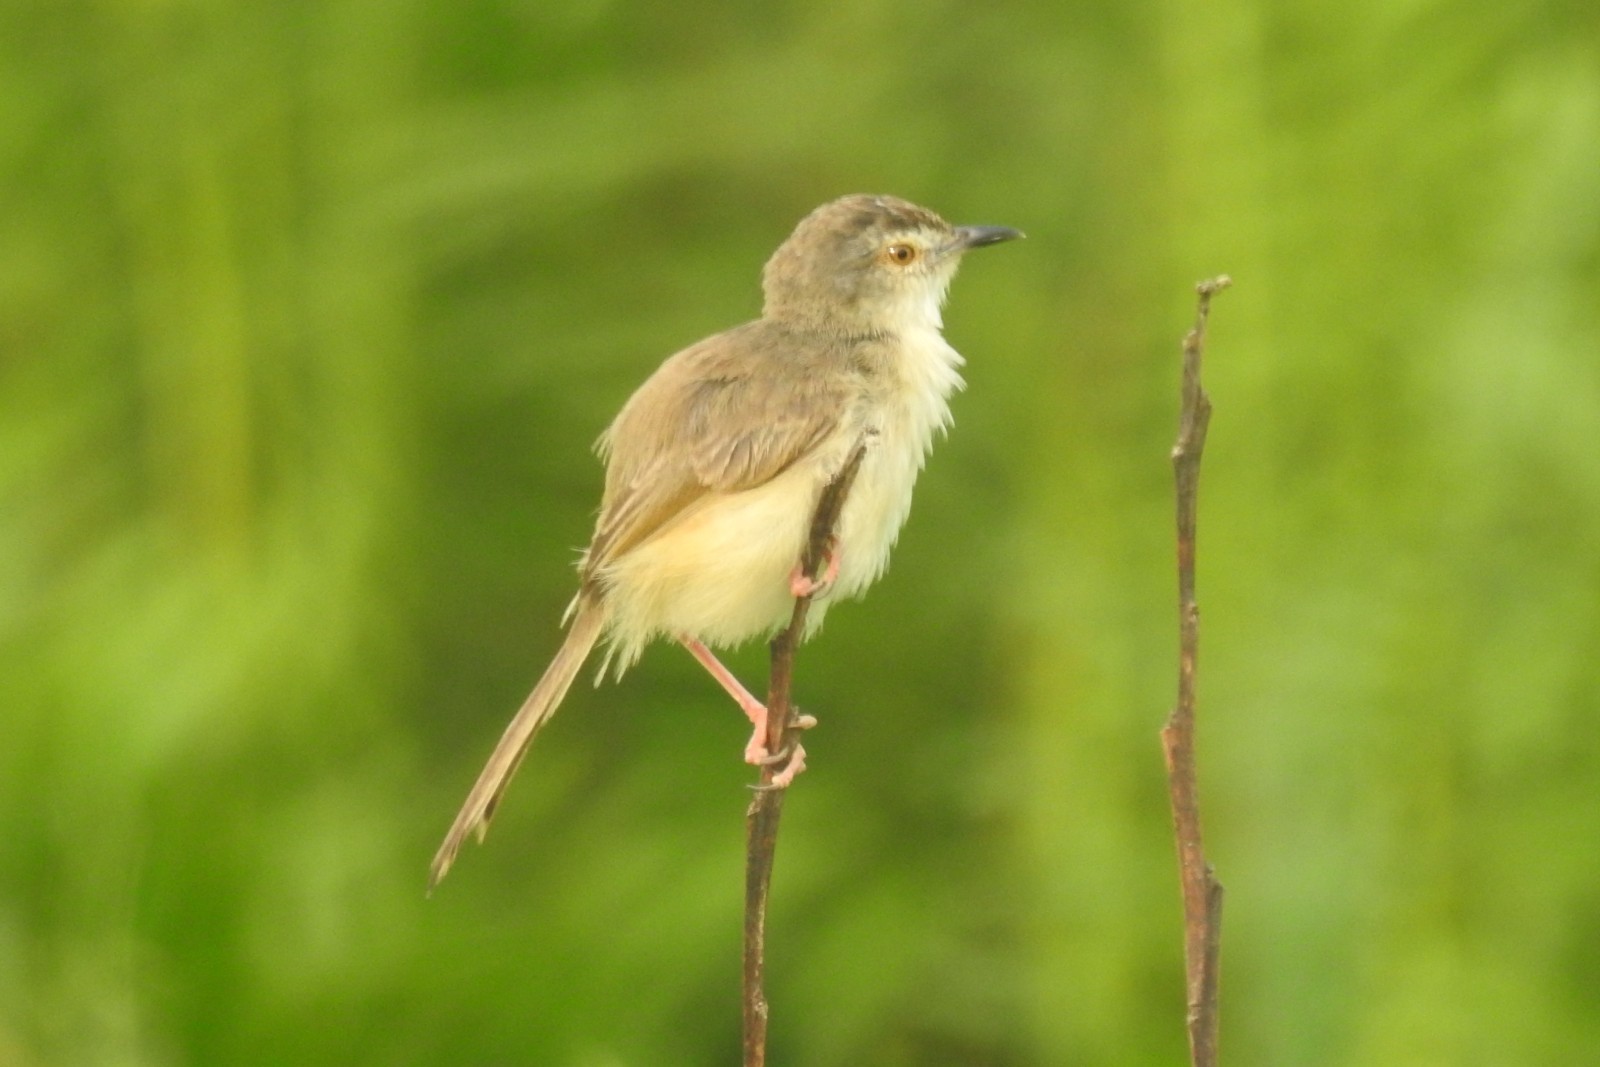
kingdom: Animalia
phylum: Chordata
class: Aves
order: Passeriformes
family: Cisticolidae
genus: Prinia
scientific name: Prinia inornata
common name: Plain prinia
